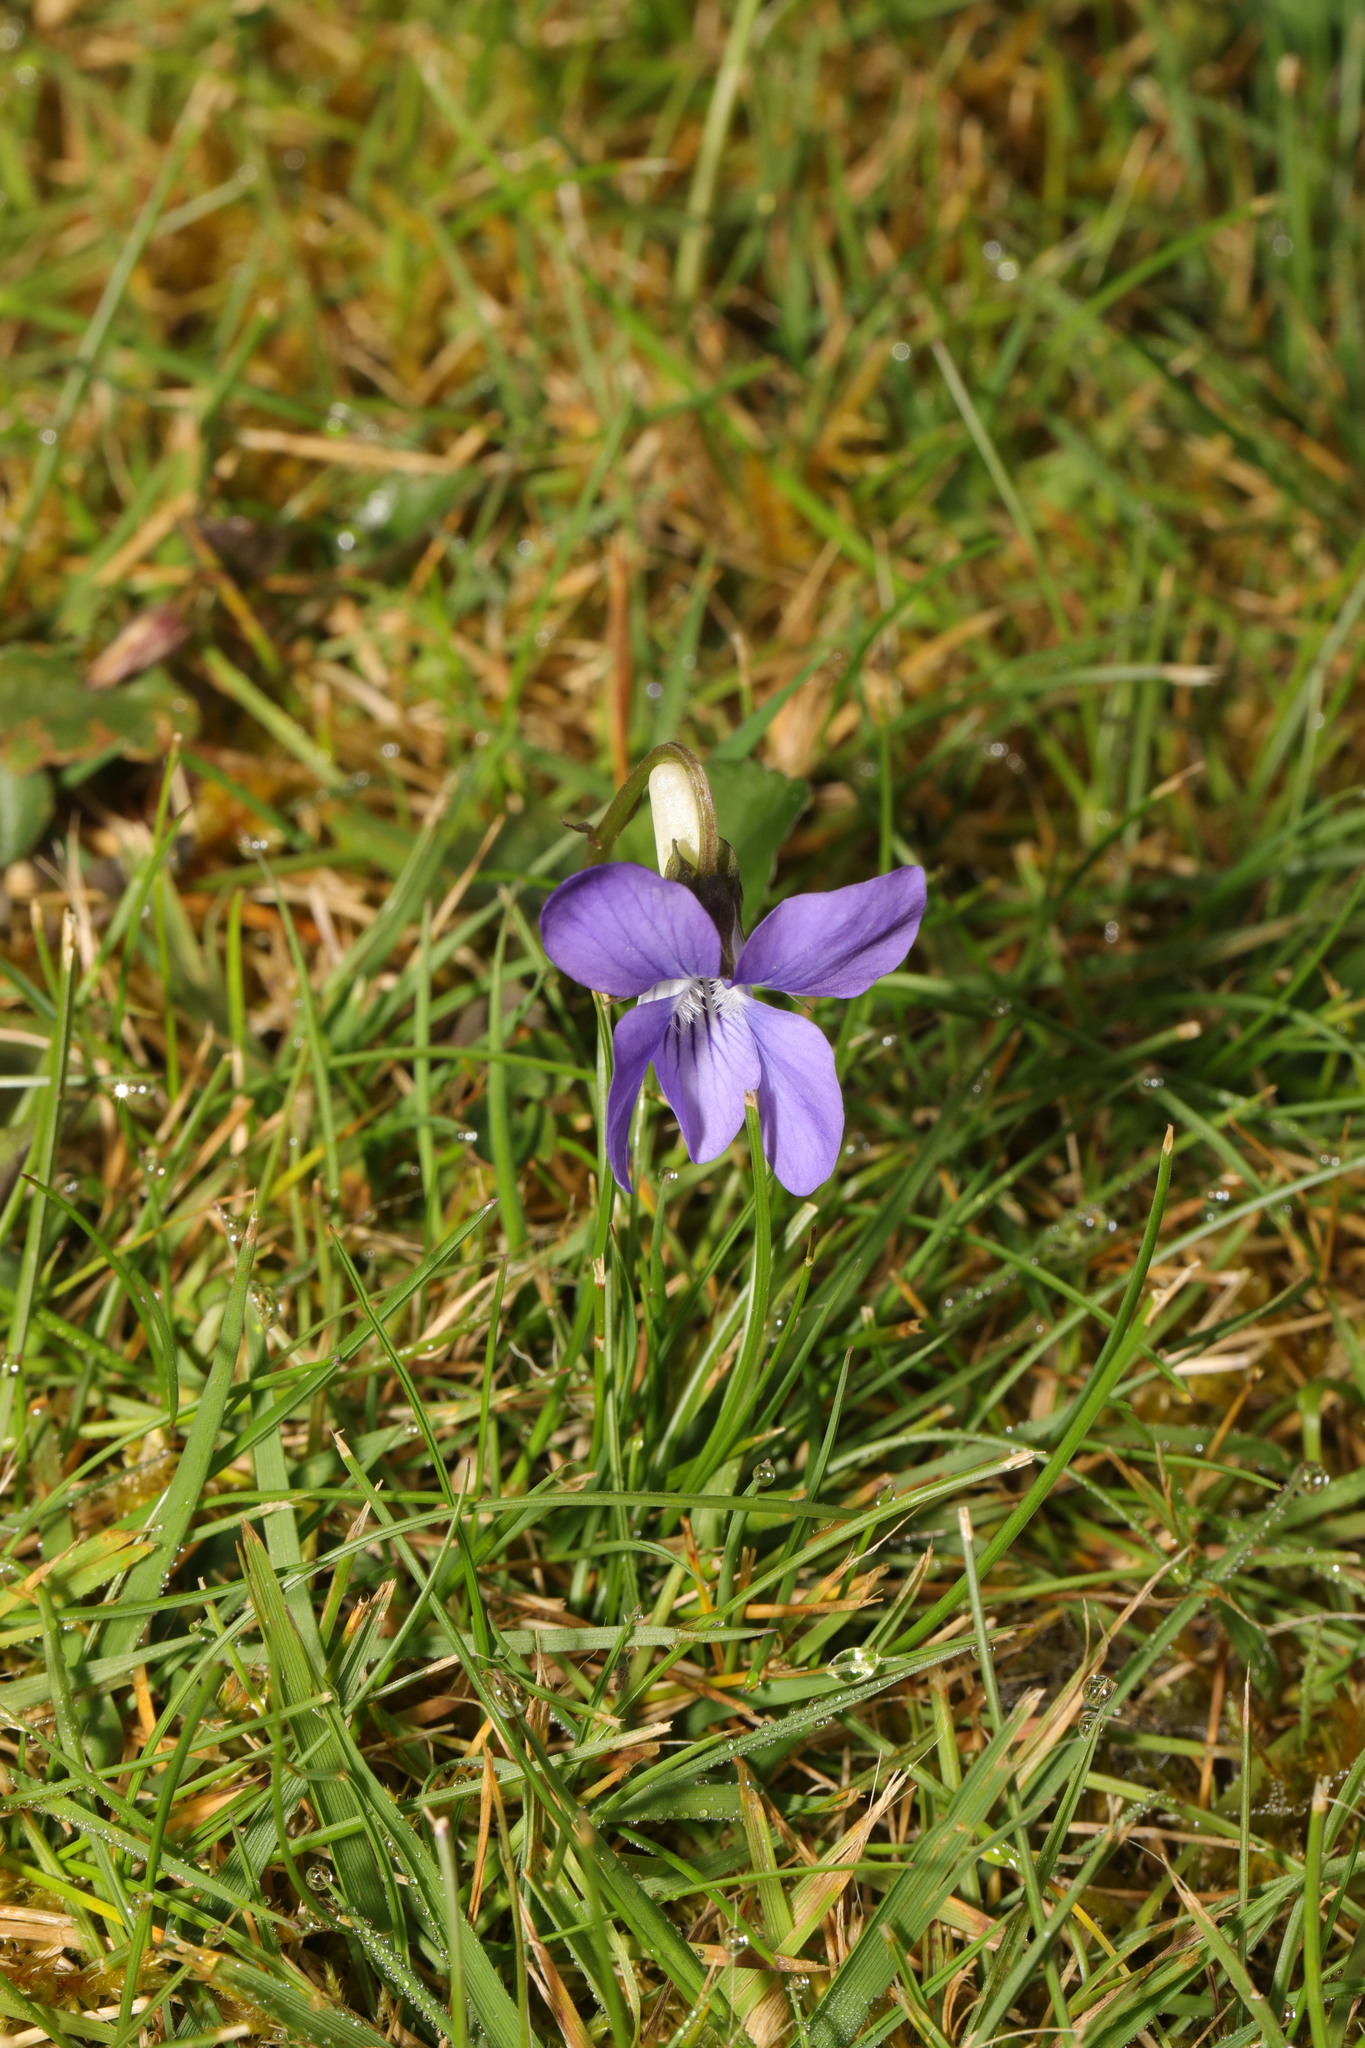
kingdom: Plantae
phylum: Tracheophyta
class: Magnoliopsida
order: Malpighiales
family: Violaceae
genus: Viola
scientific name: Viola riviniana
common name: Common dog-violet
